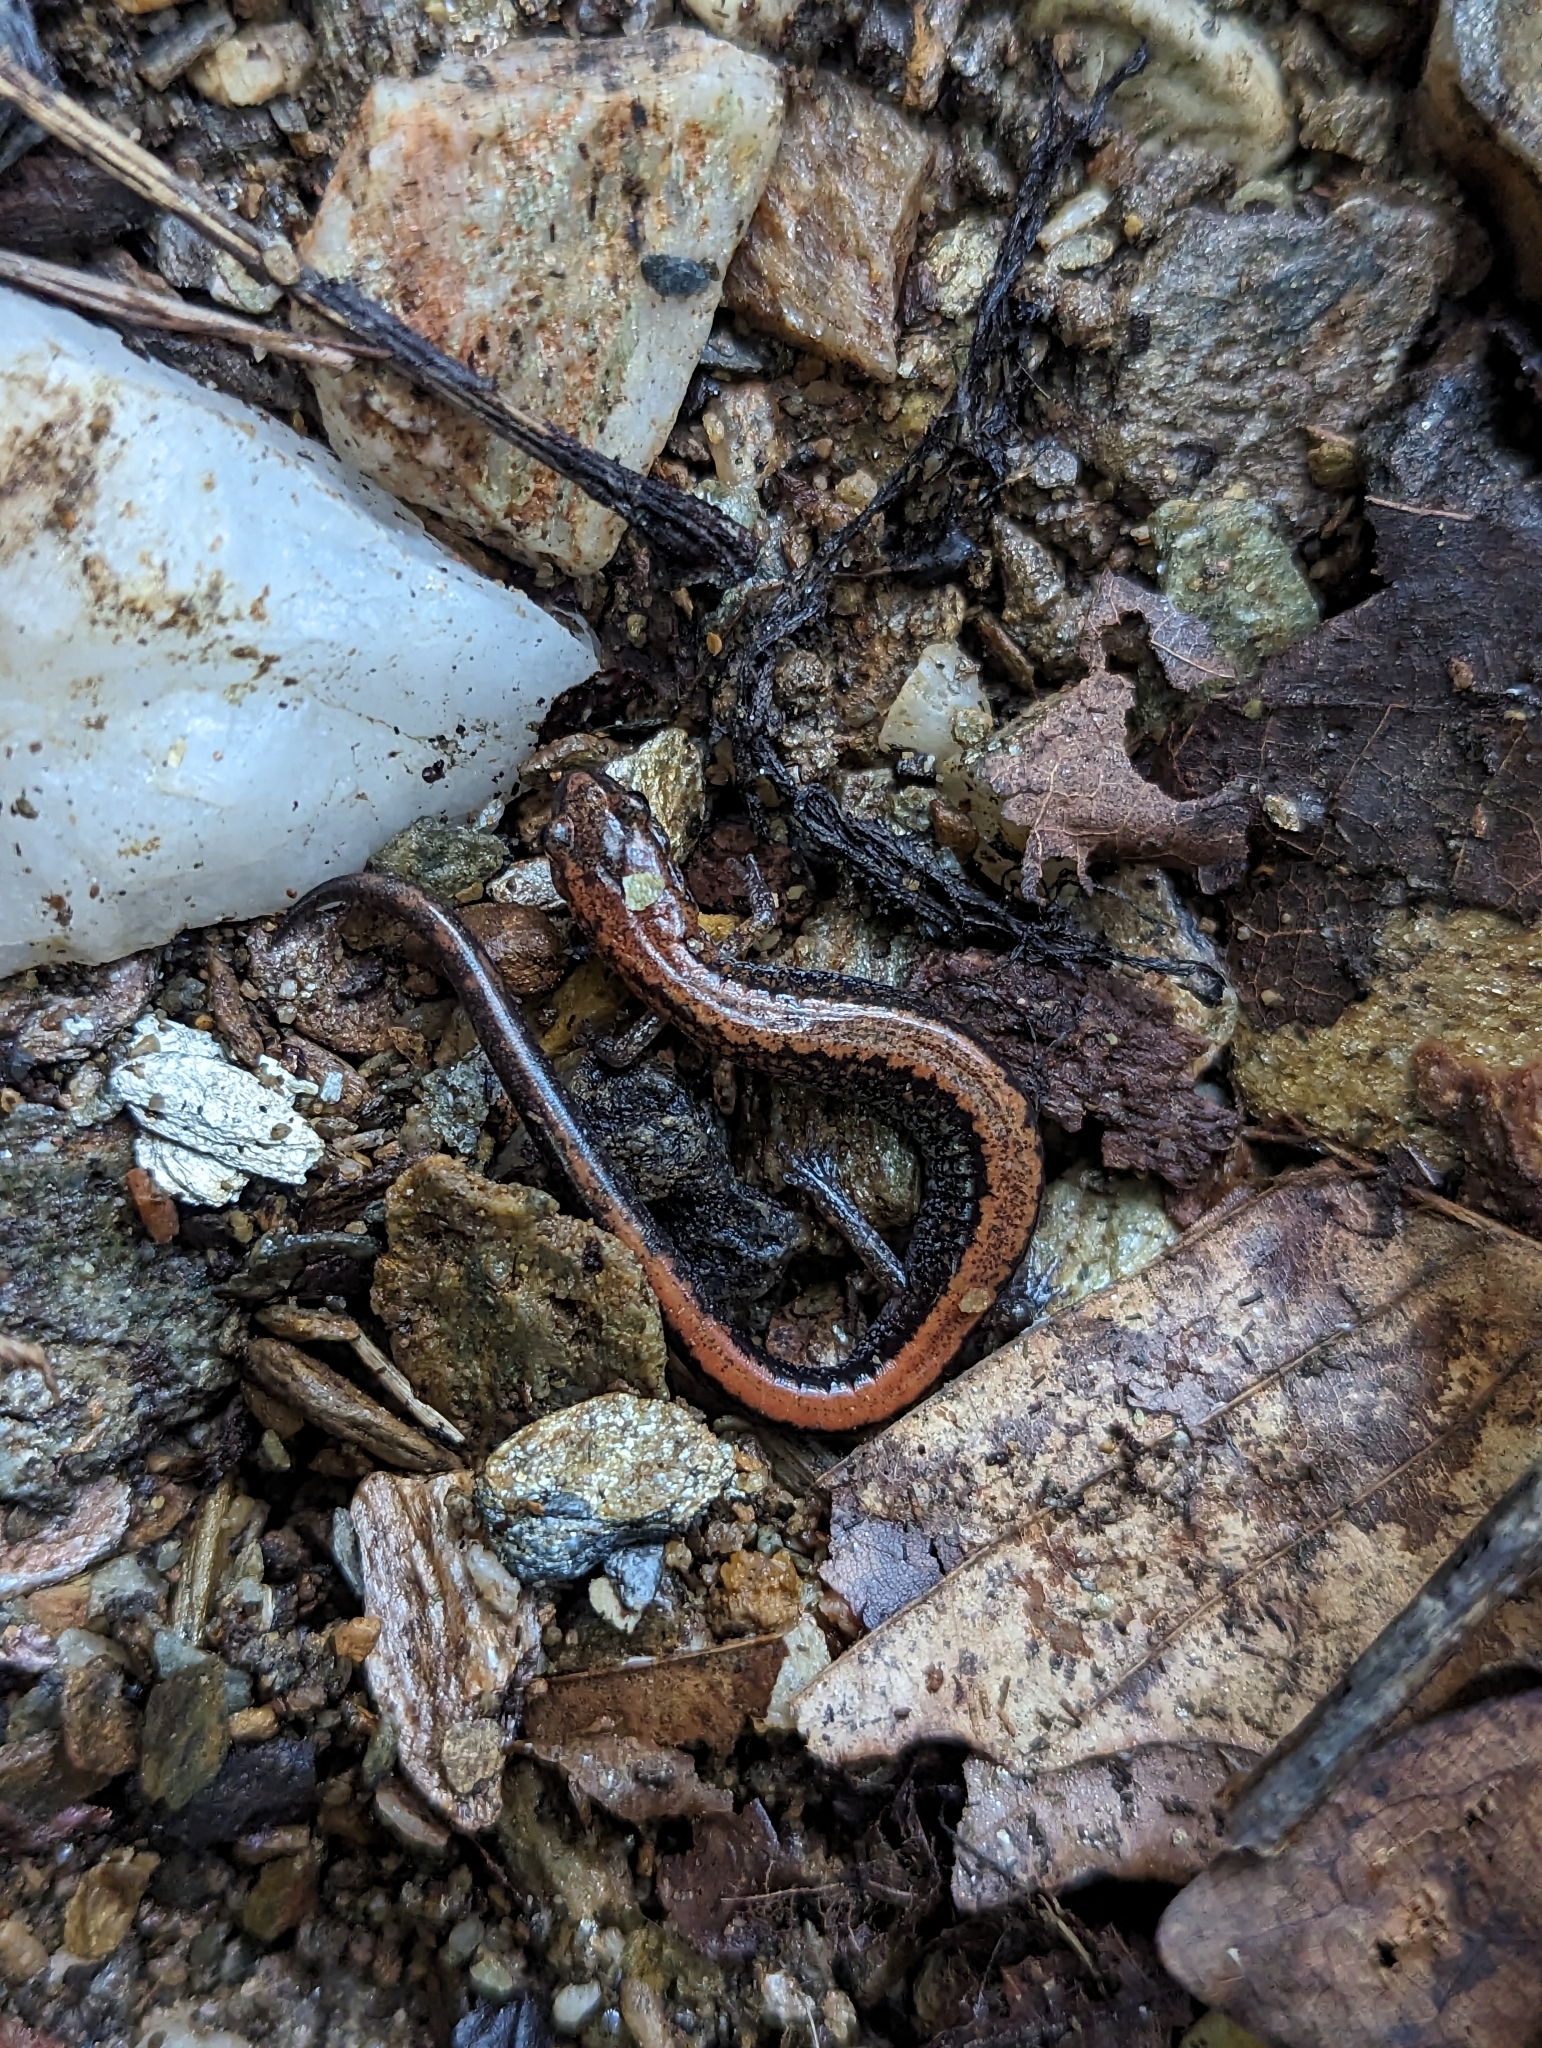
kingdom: Animalia
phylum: Chordata
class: Amphibia
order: Caudata
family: Plethodontidae
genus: Plethodon
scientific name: Plethodon cinereus
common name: Redback salamander
